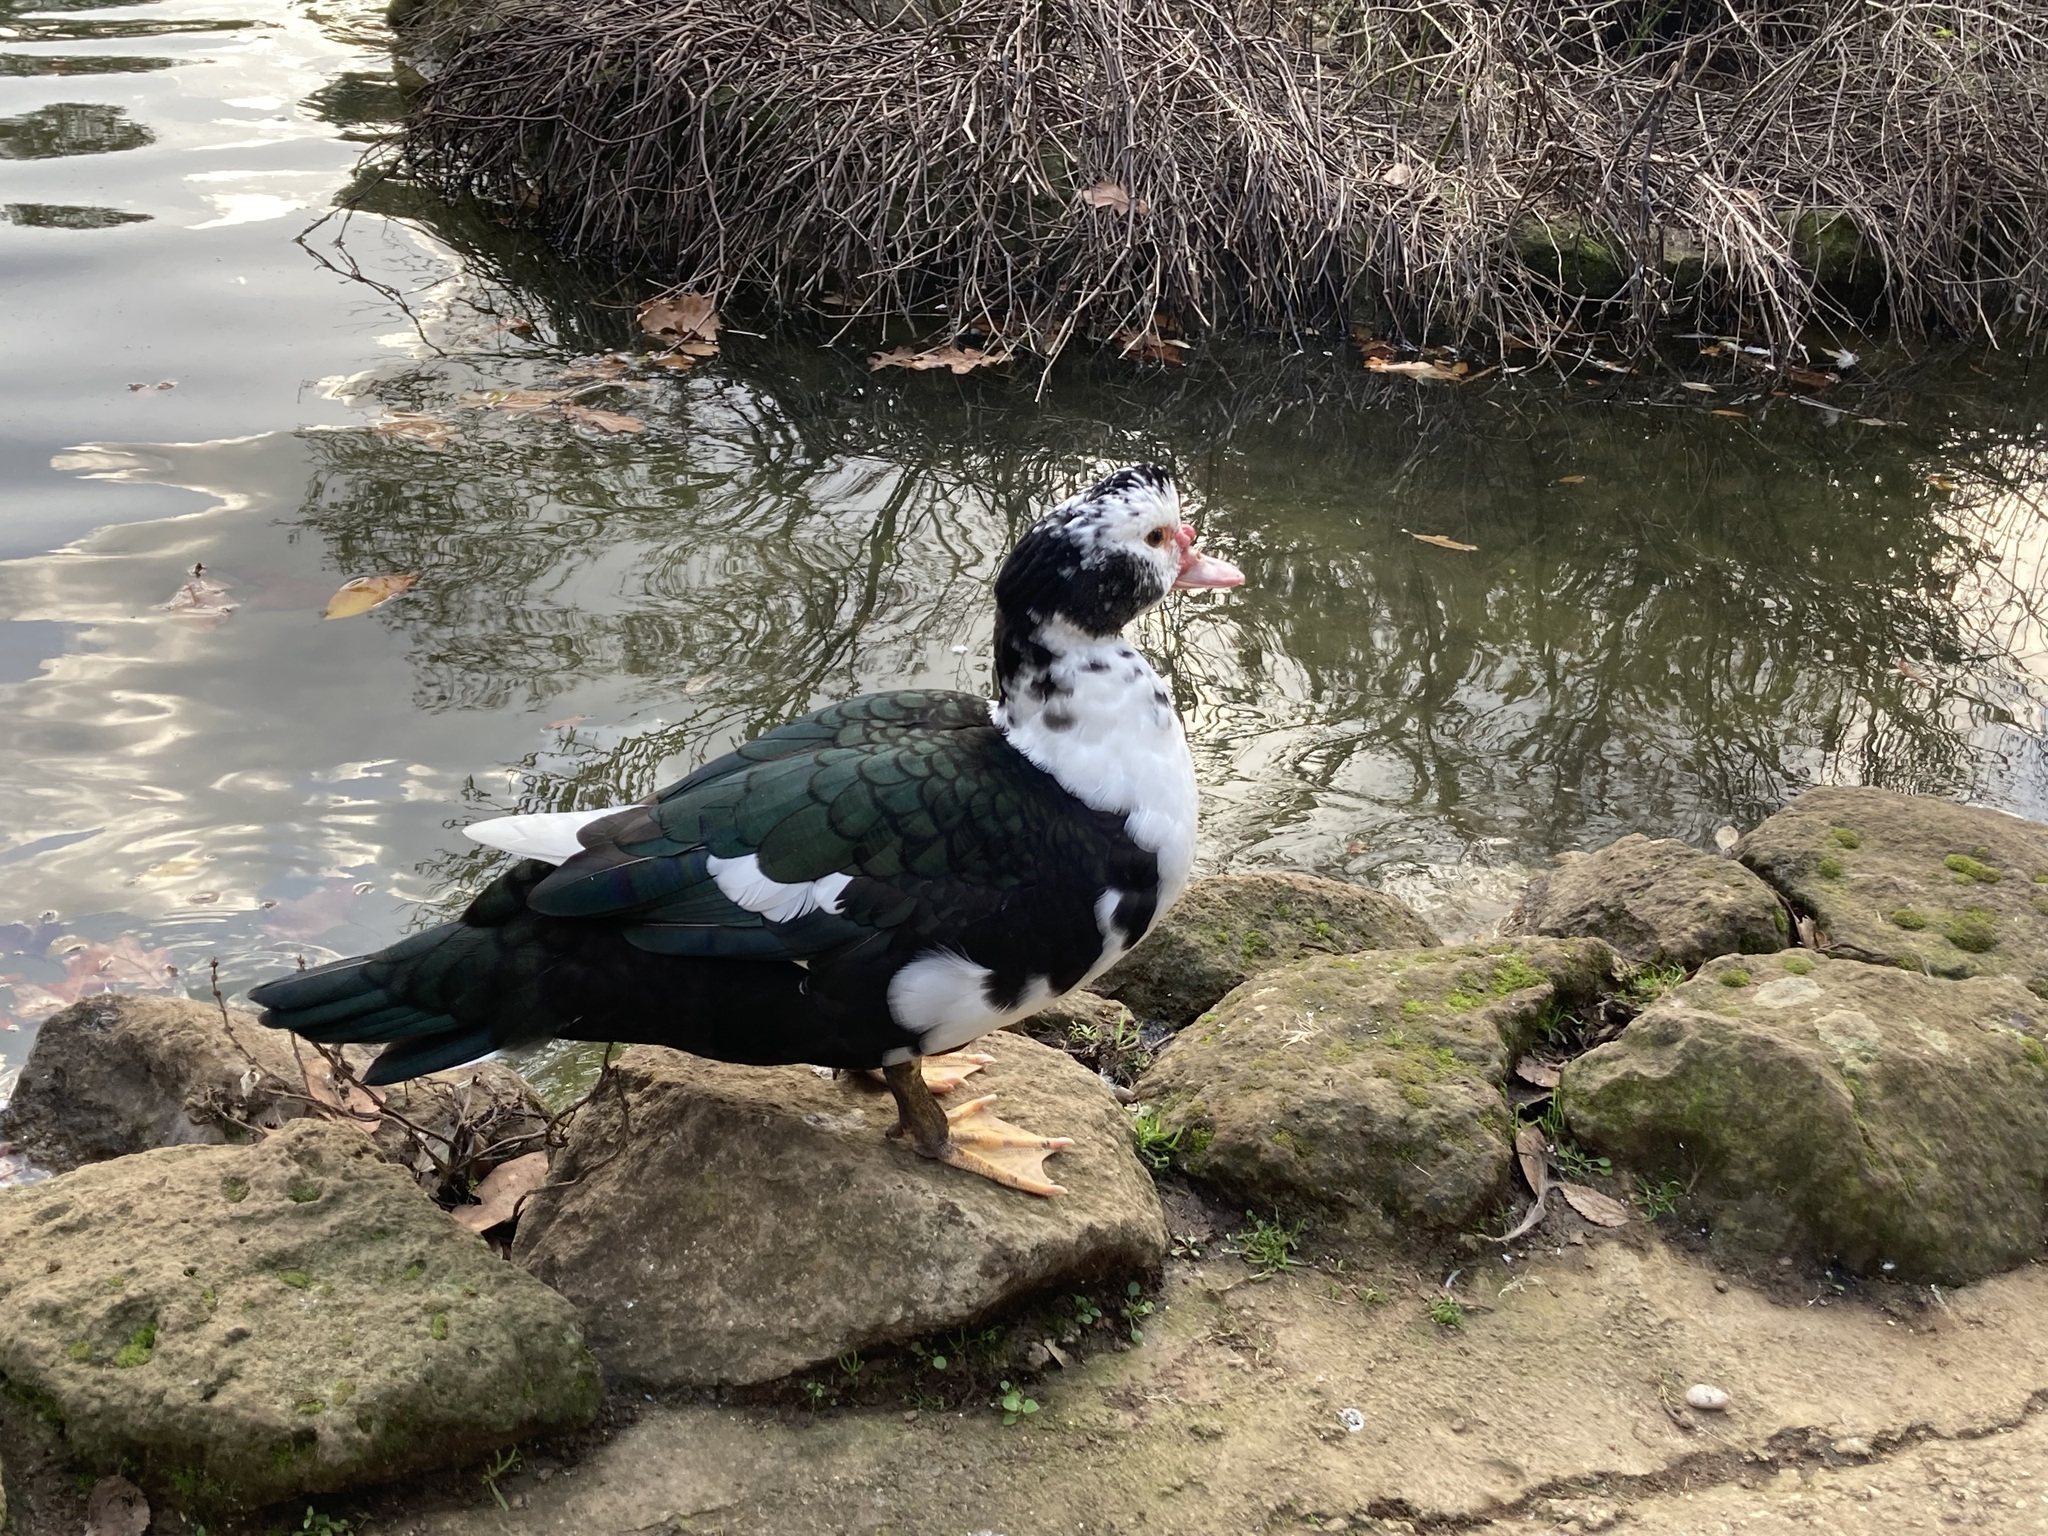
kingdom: Animalia
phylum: Chordata
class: Aves
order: Anseriformes
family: Anatidae
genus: Cairina
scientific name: Cairina moschata
